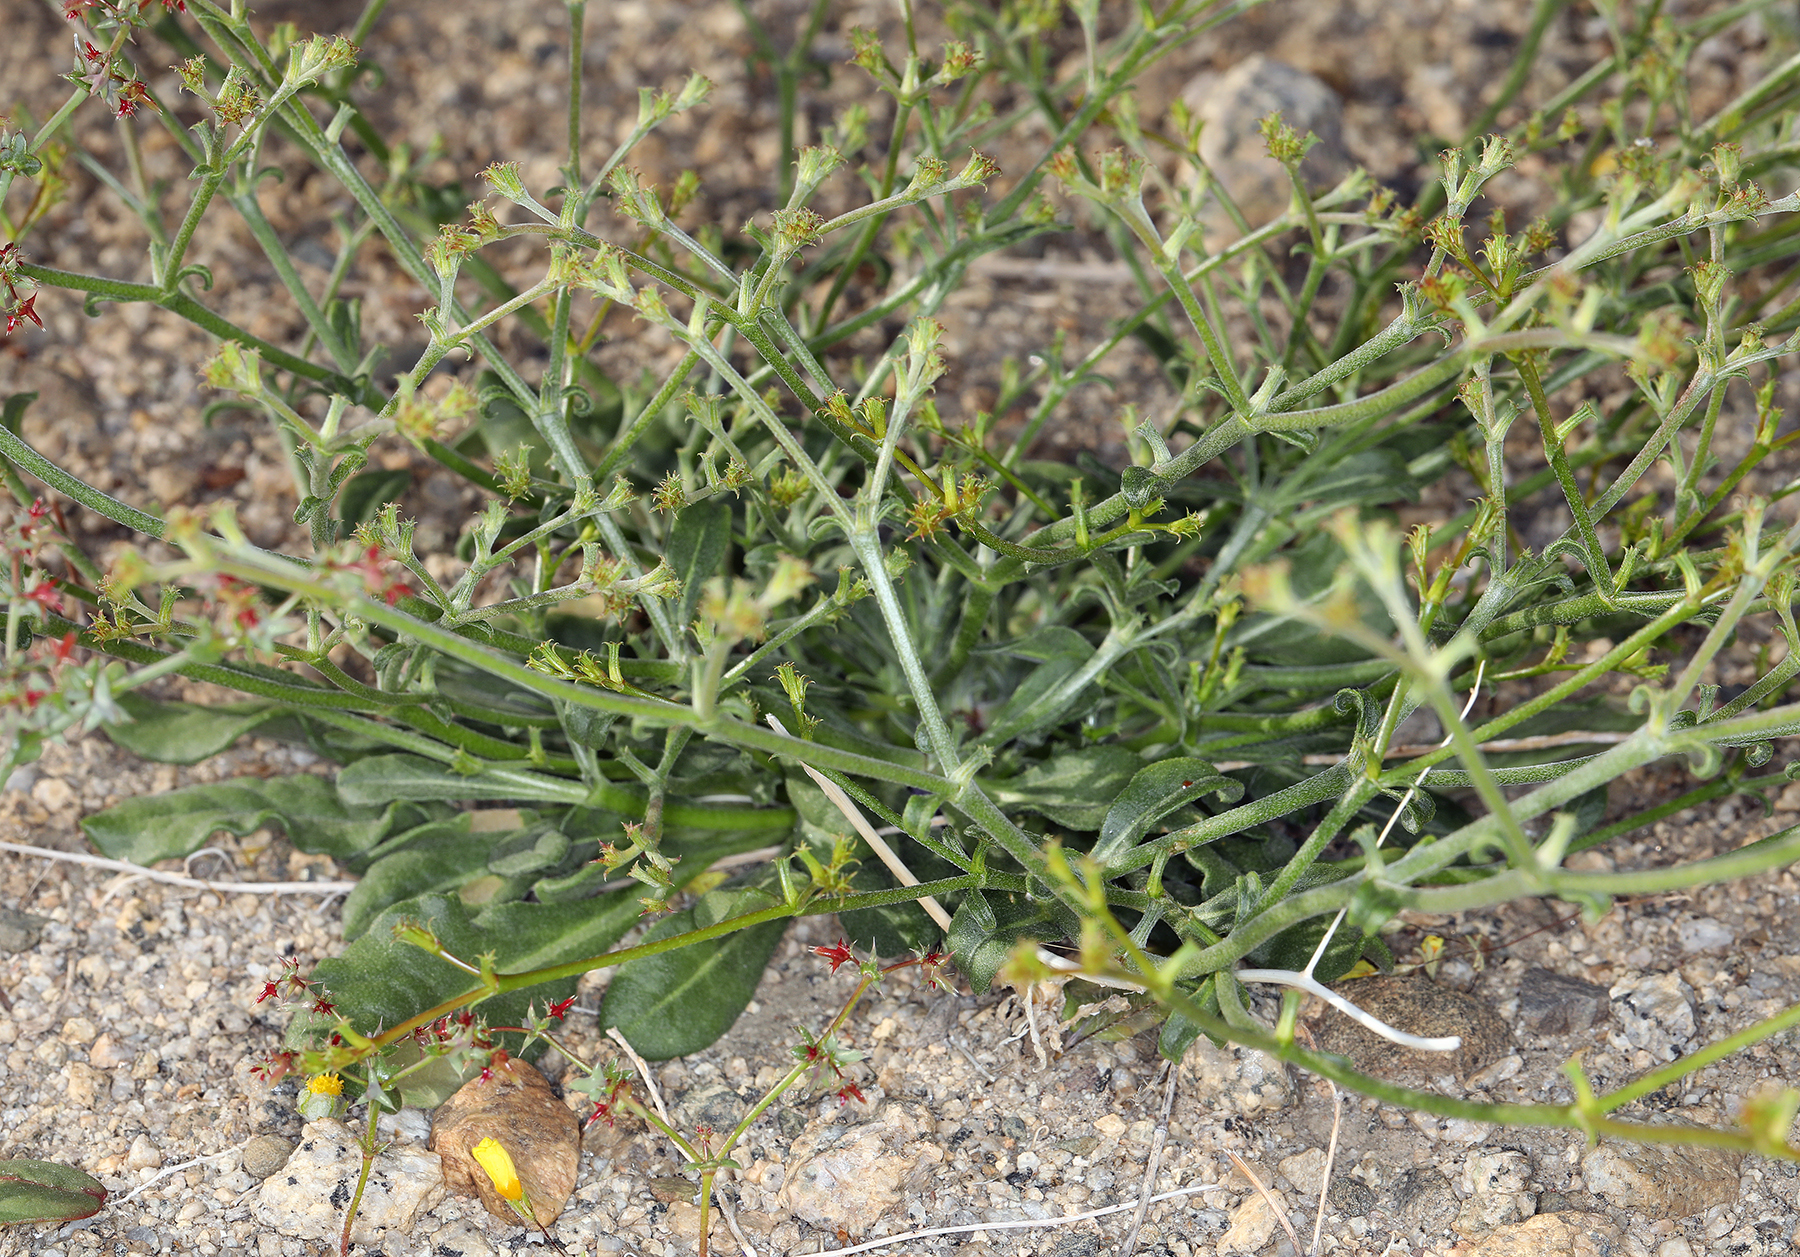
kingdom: Plantae
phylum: Tracheophyta
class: Magnoliopsida
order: Caryophyllales
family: Polygonaceae
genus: Chorizanthe
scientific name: Chorizanthe brevicornu
